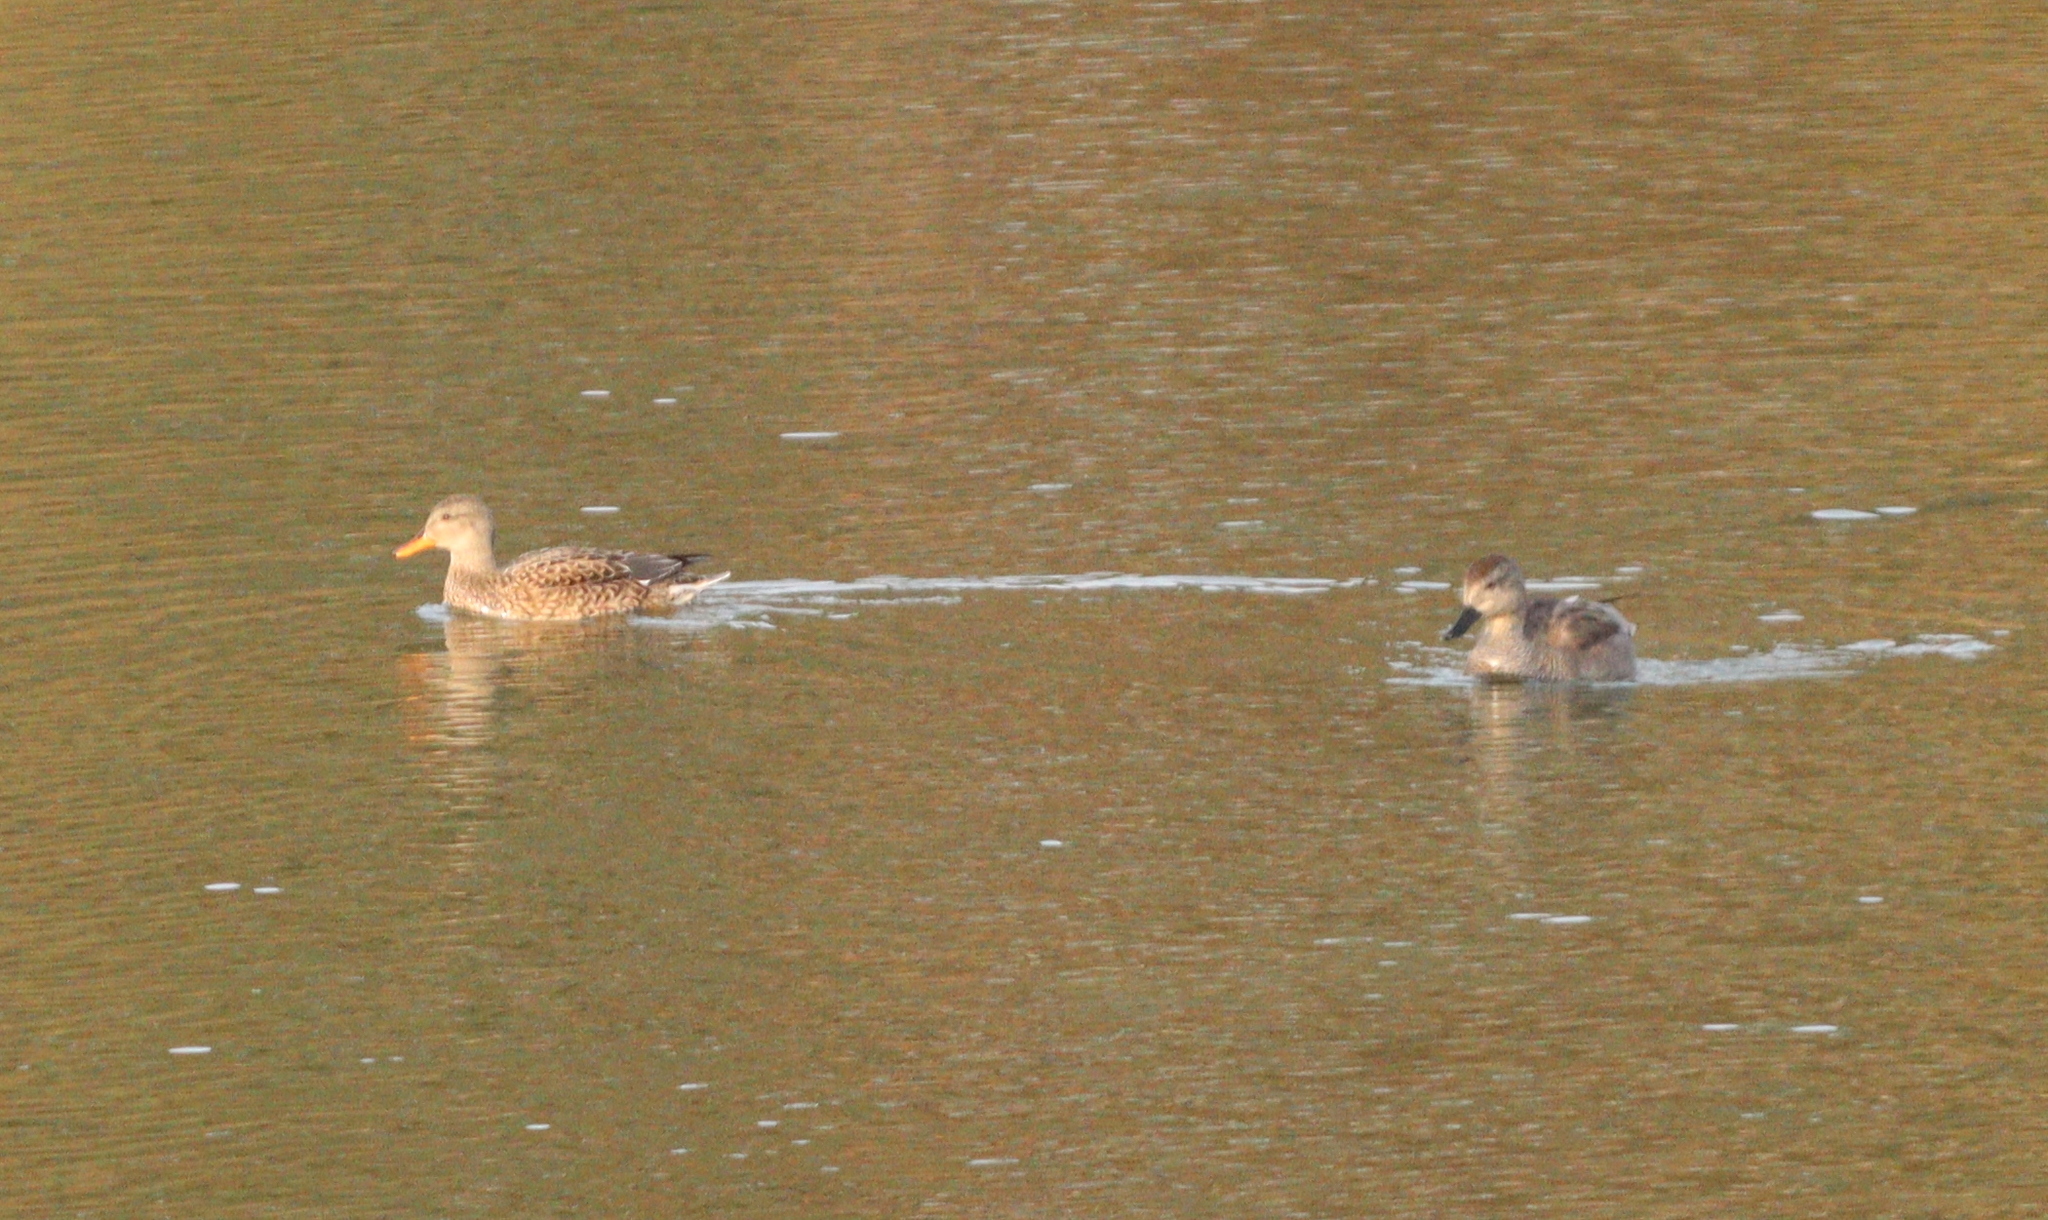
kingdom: Animalia
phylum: Chordata
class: Aves
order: Anseriformes
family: Anatidae
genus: Mareca
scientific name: Mareca strepera
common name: Gadwall
